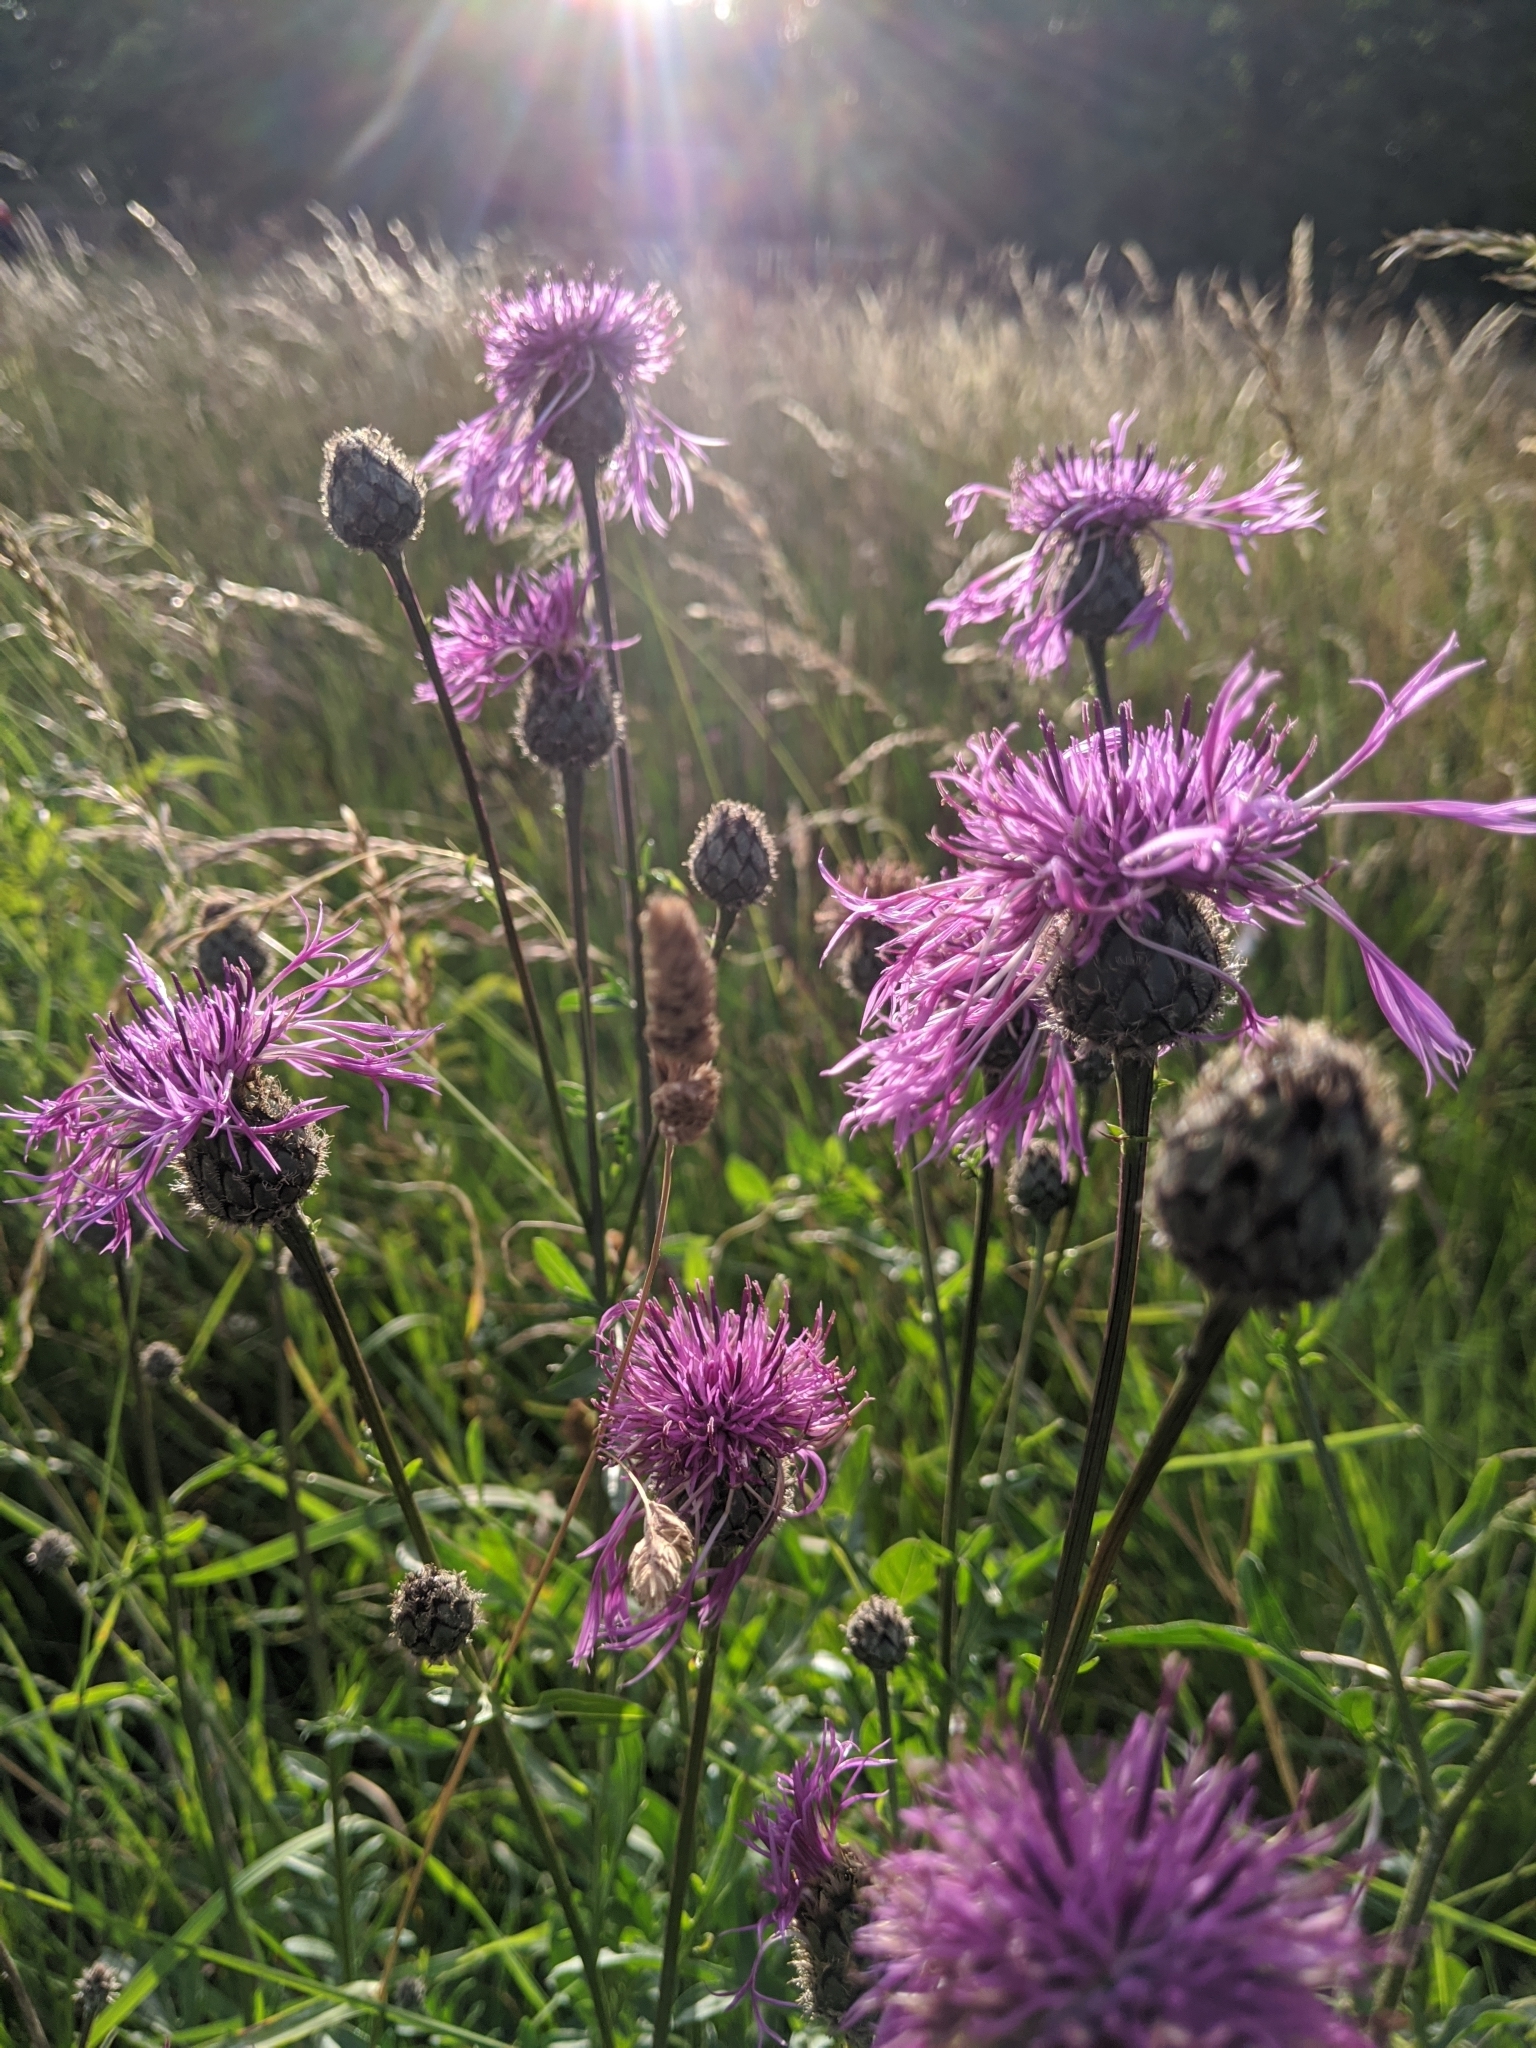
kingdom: Plantae
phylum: Tracheophyta
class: Magnoliopsida
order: Asterales
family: Asteraceae
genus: Centaurea
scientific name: Centaurea scabiosa
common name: Greater knapweed
